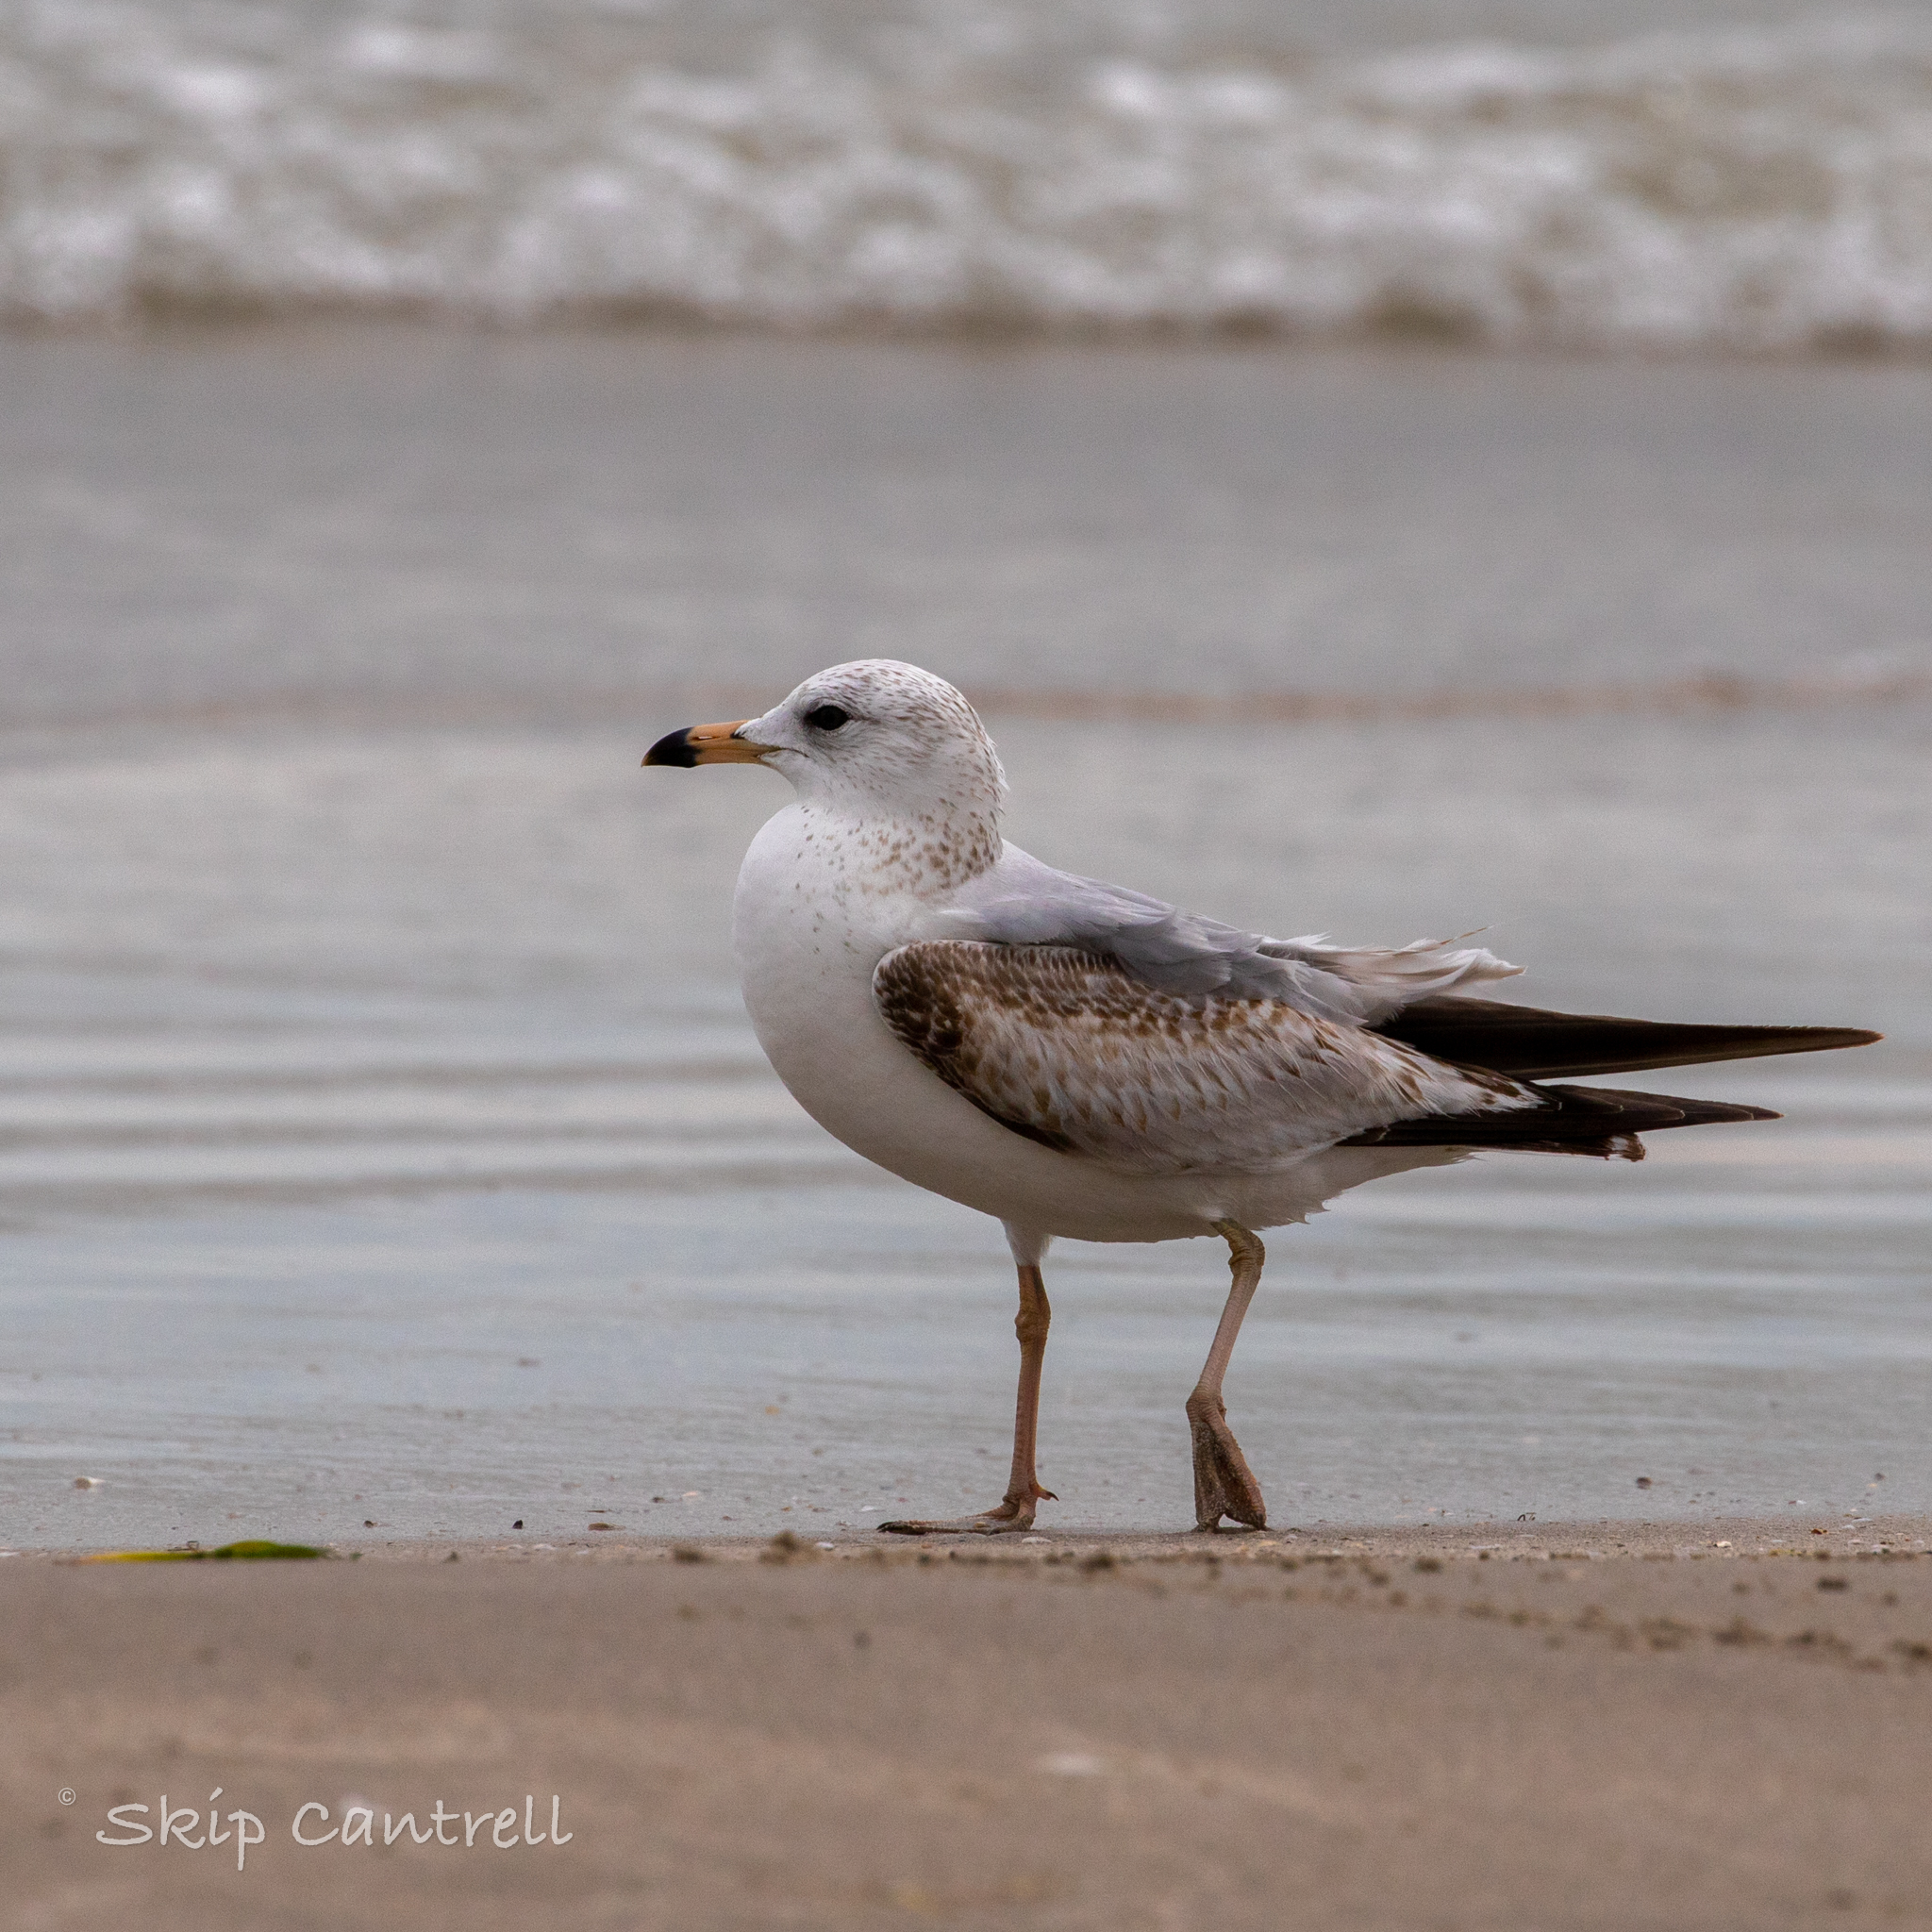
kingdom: Animalia
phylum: Chordata
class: Aves
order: Charadriiformes
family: Laridae
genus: Larus
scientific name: Larus delawarensis
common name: Ring-billed gull
